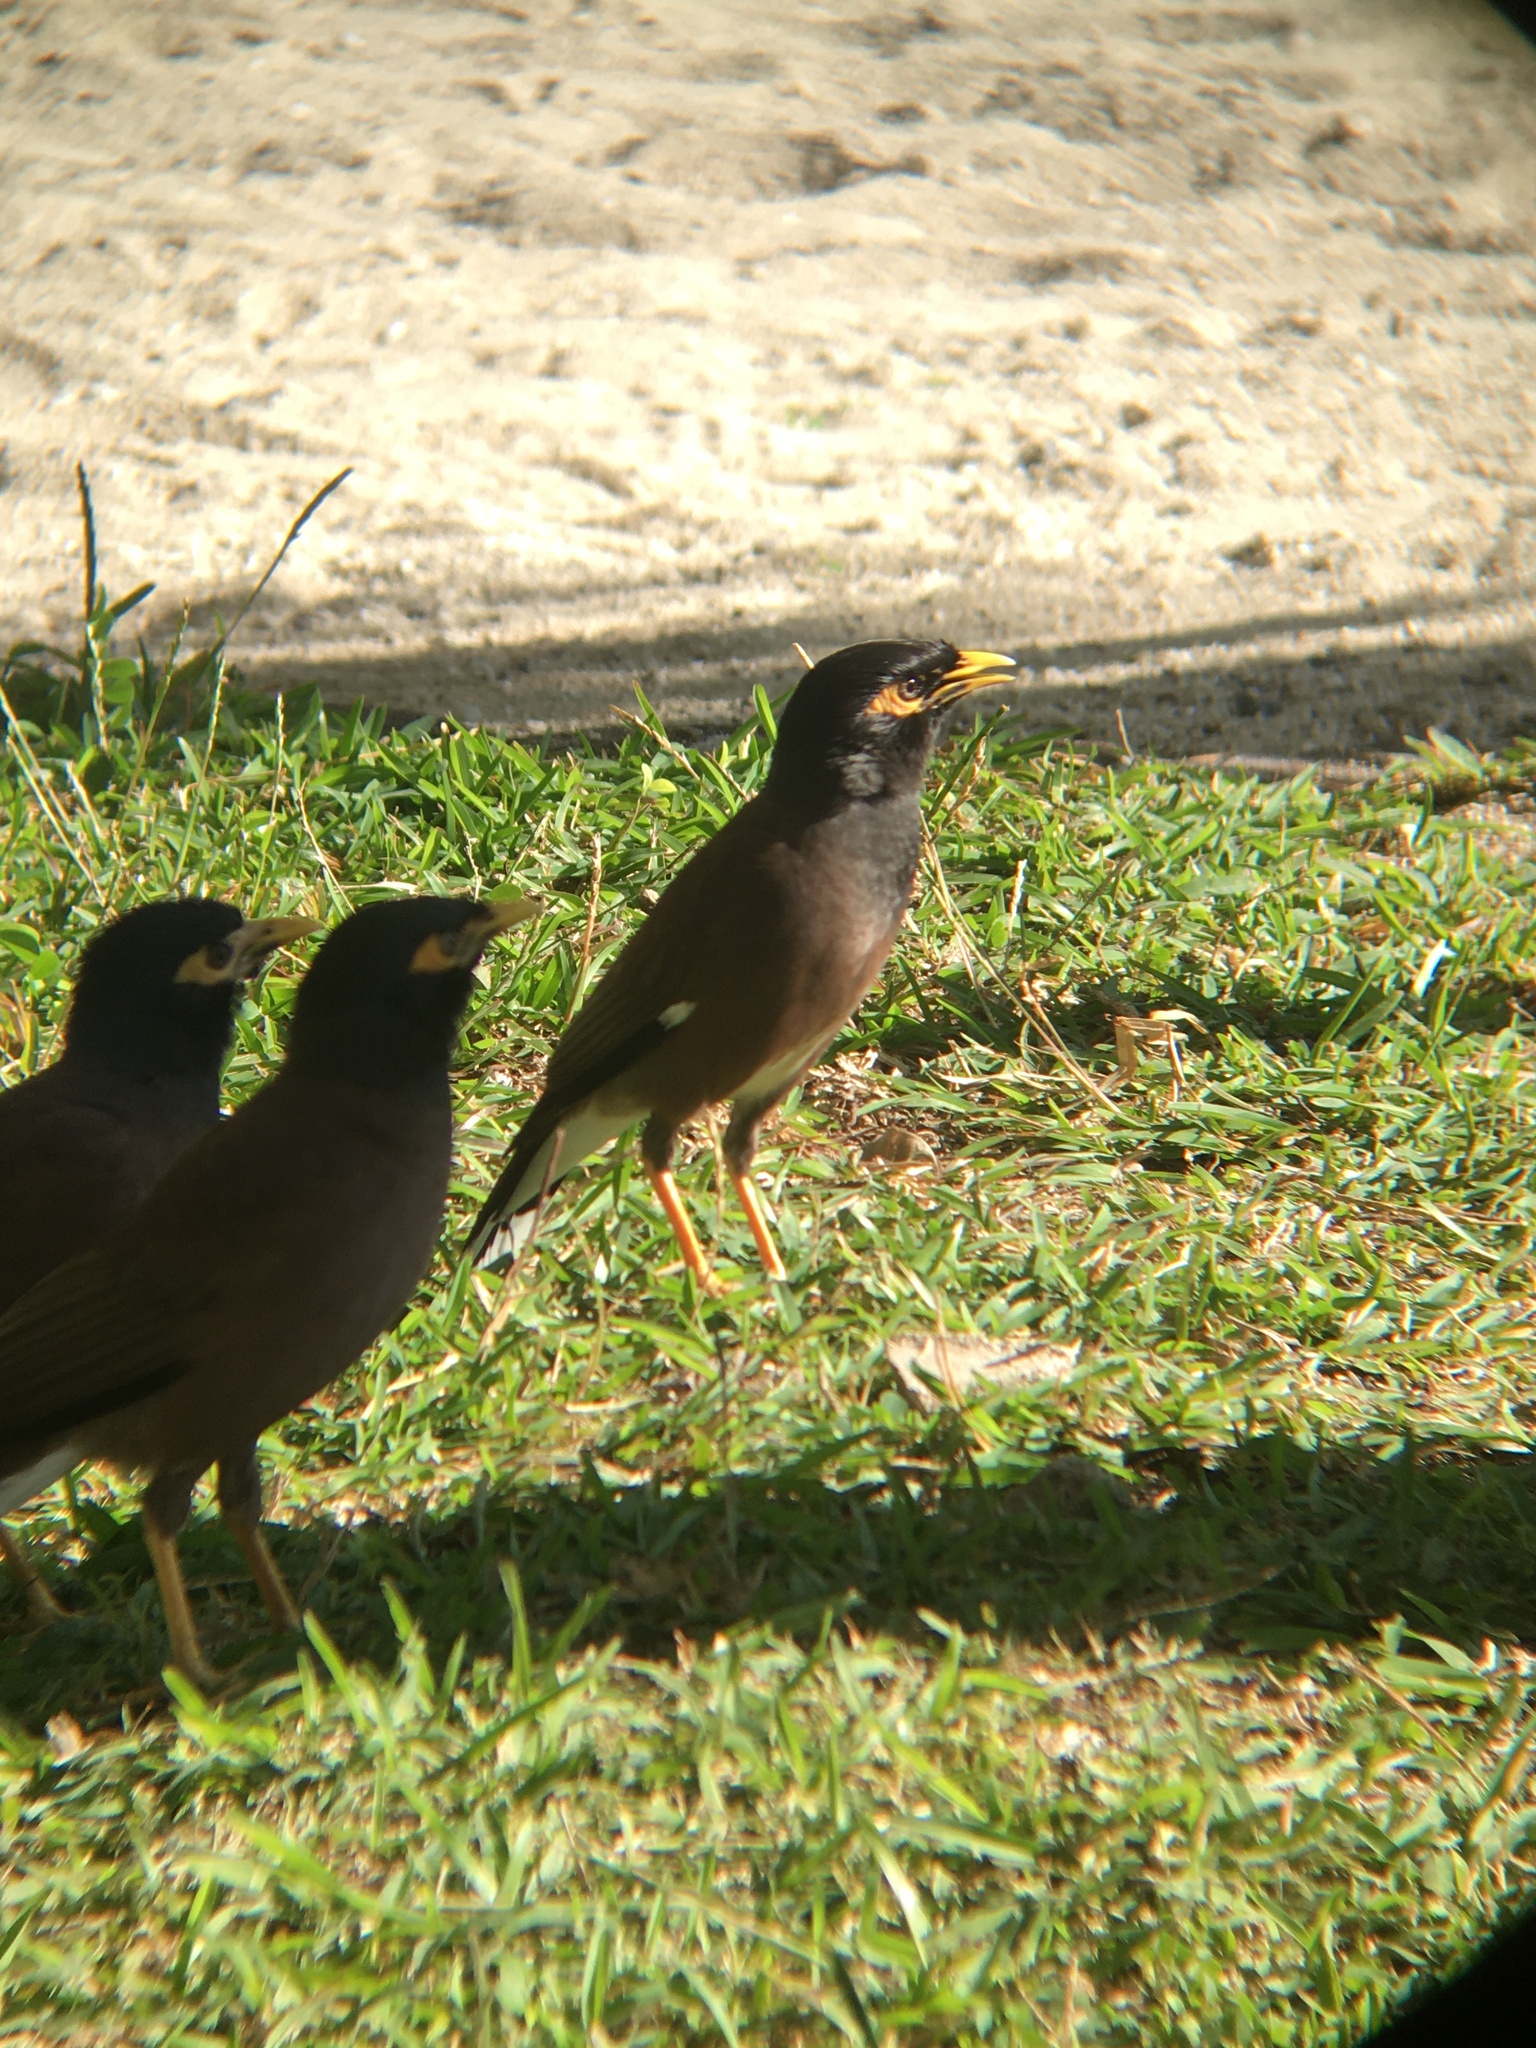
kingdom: Animalia
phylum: Chordata
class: Aves
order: Passeriformes
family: Sturnidae
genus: Acridotheres
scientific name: Acridotheres tristis
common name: Common myna
